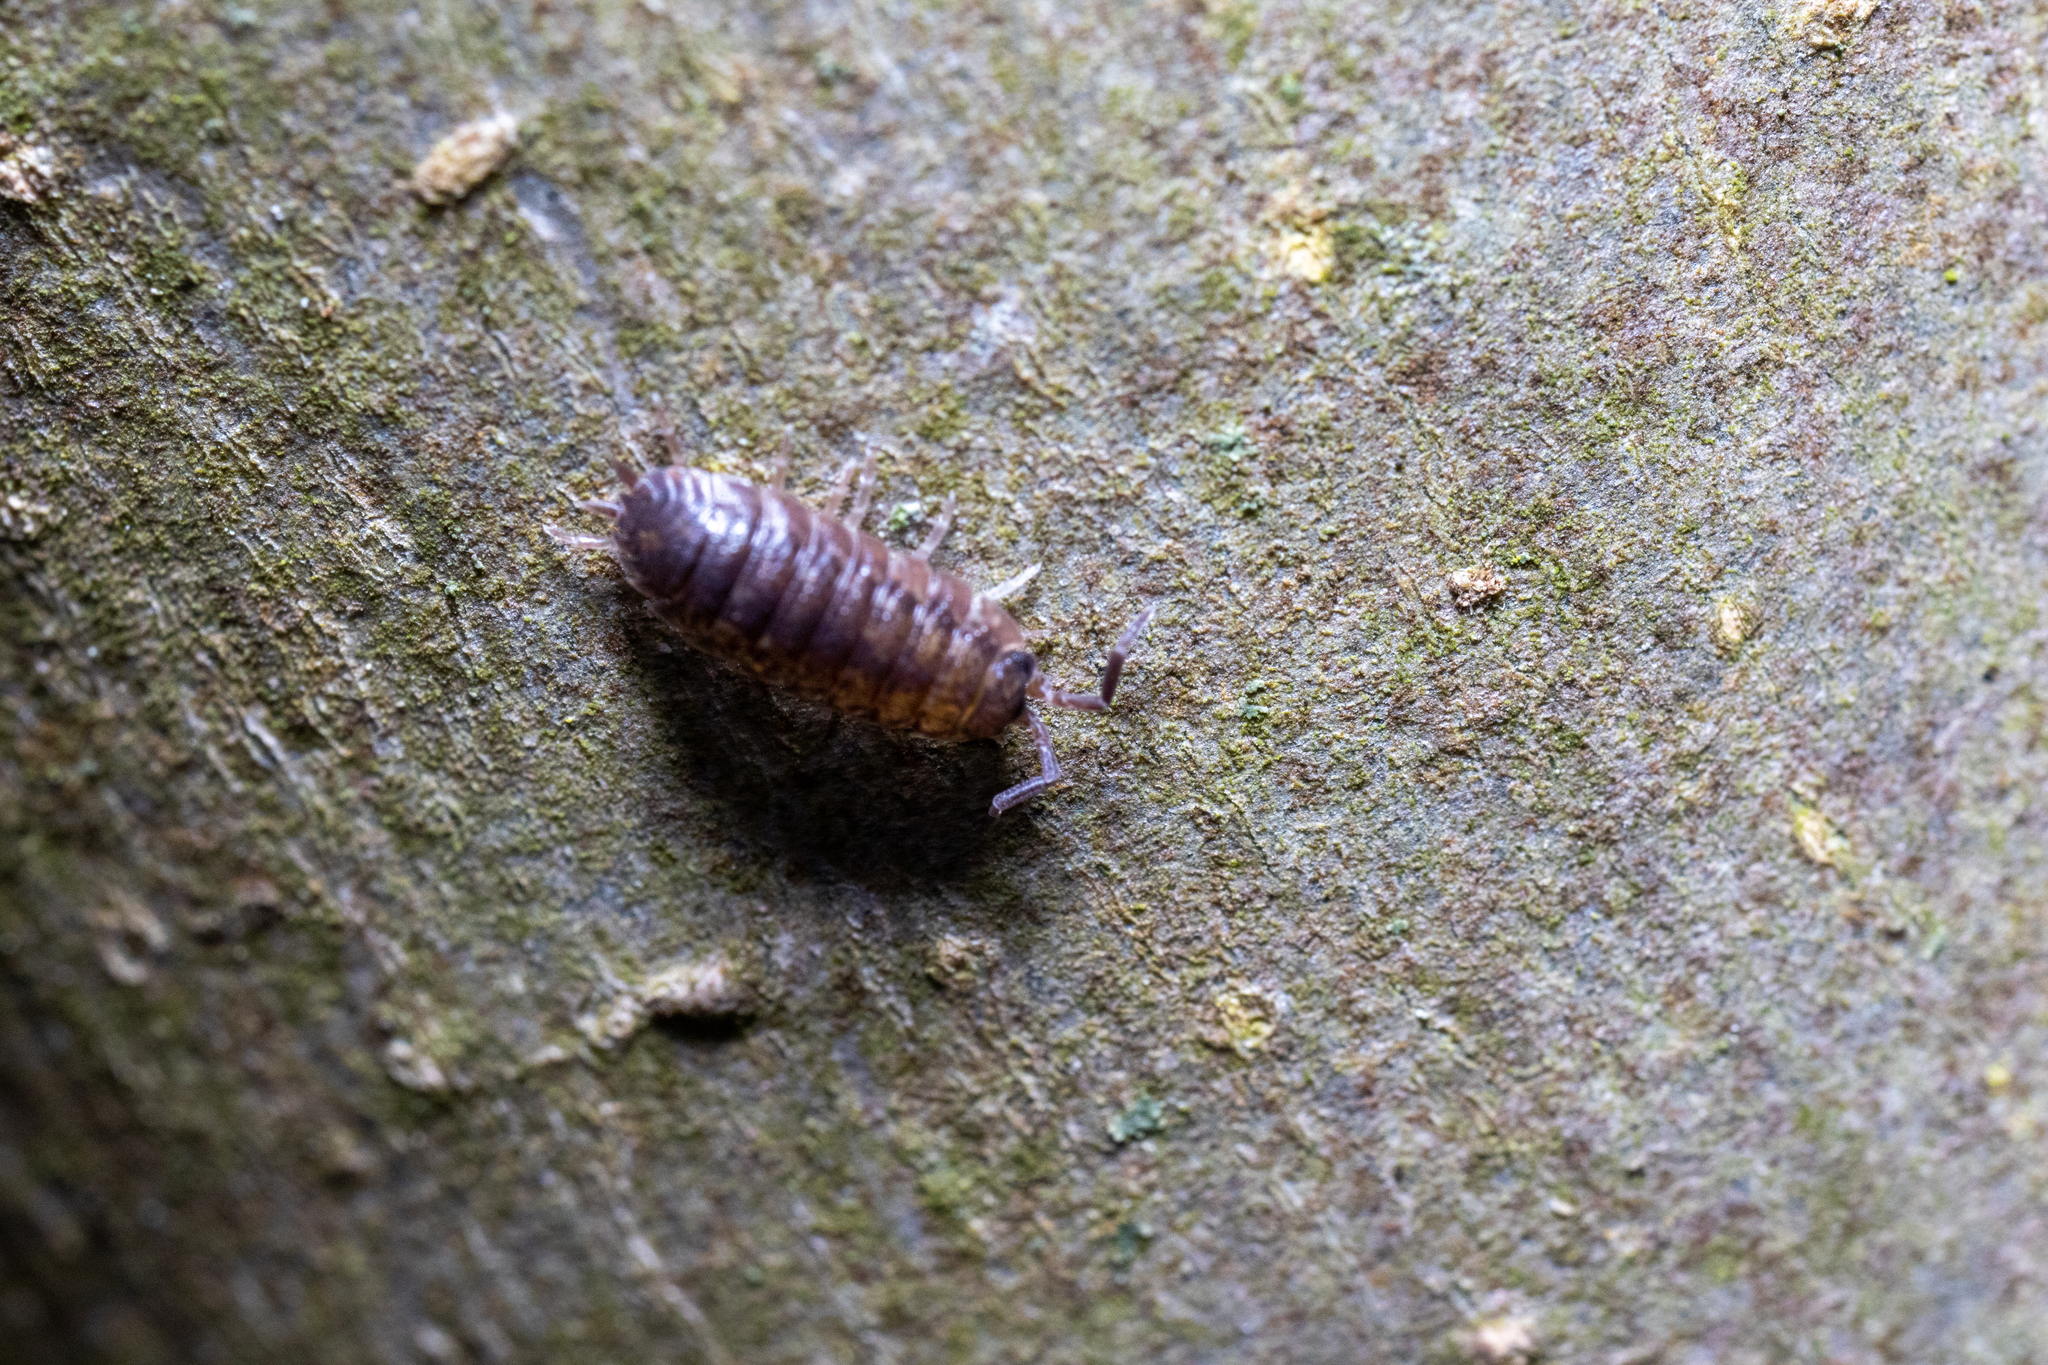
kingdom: Animalia
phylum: Arthropoda
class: Malacostraca
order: Isopoda
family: Porcellionidae
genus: Porcellio
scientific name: Porcellio scaber
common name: Common rough woodlouse
